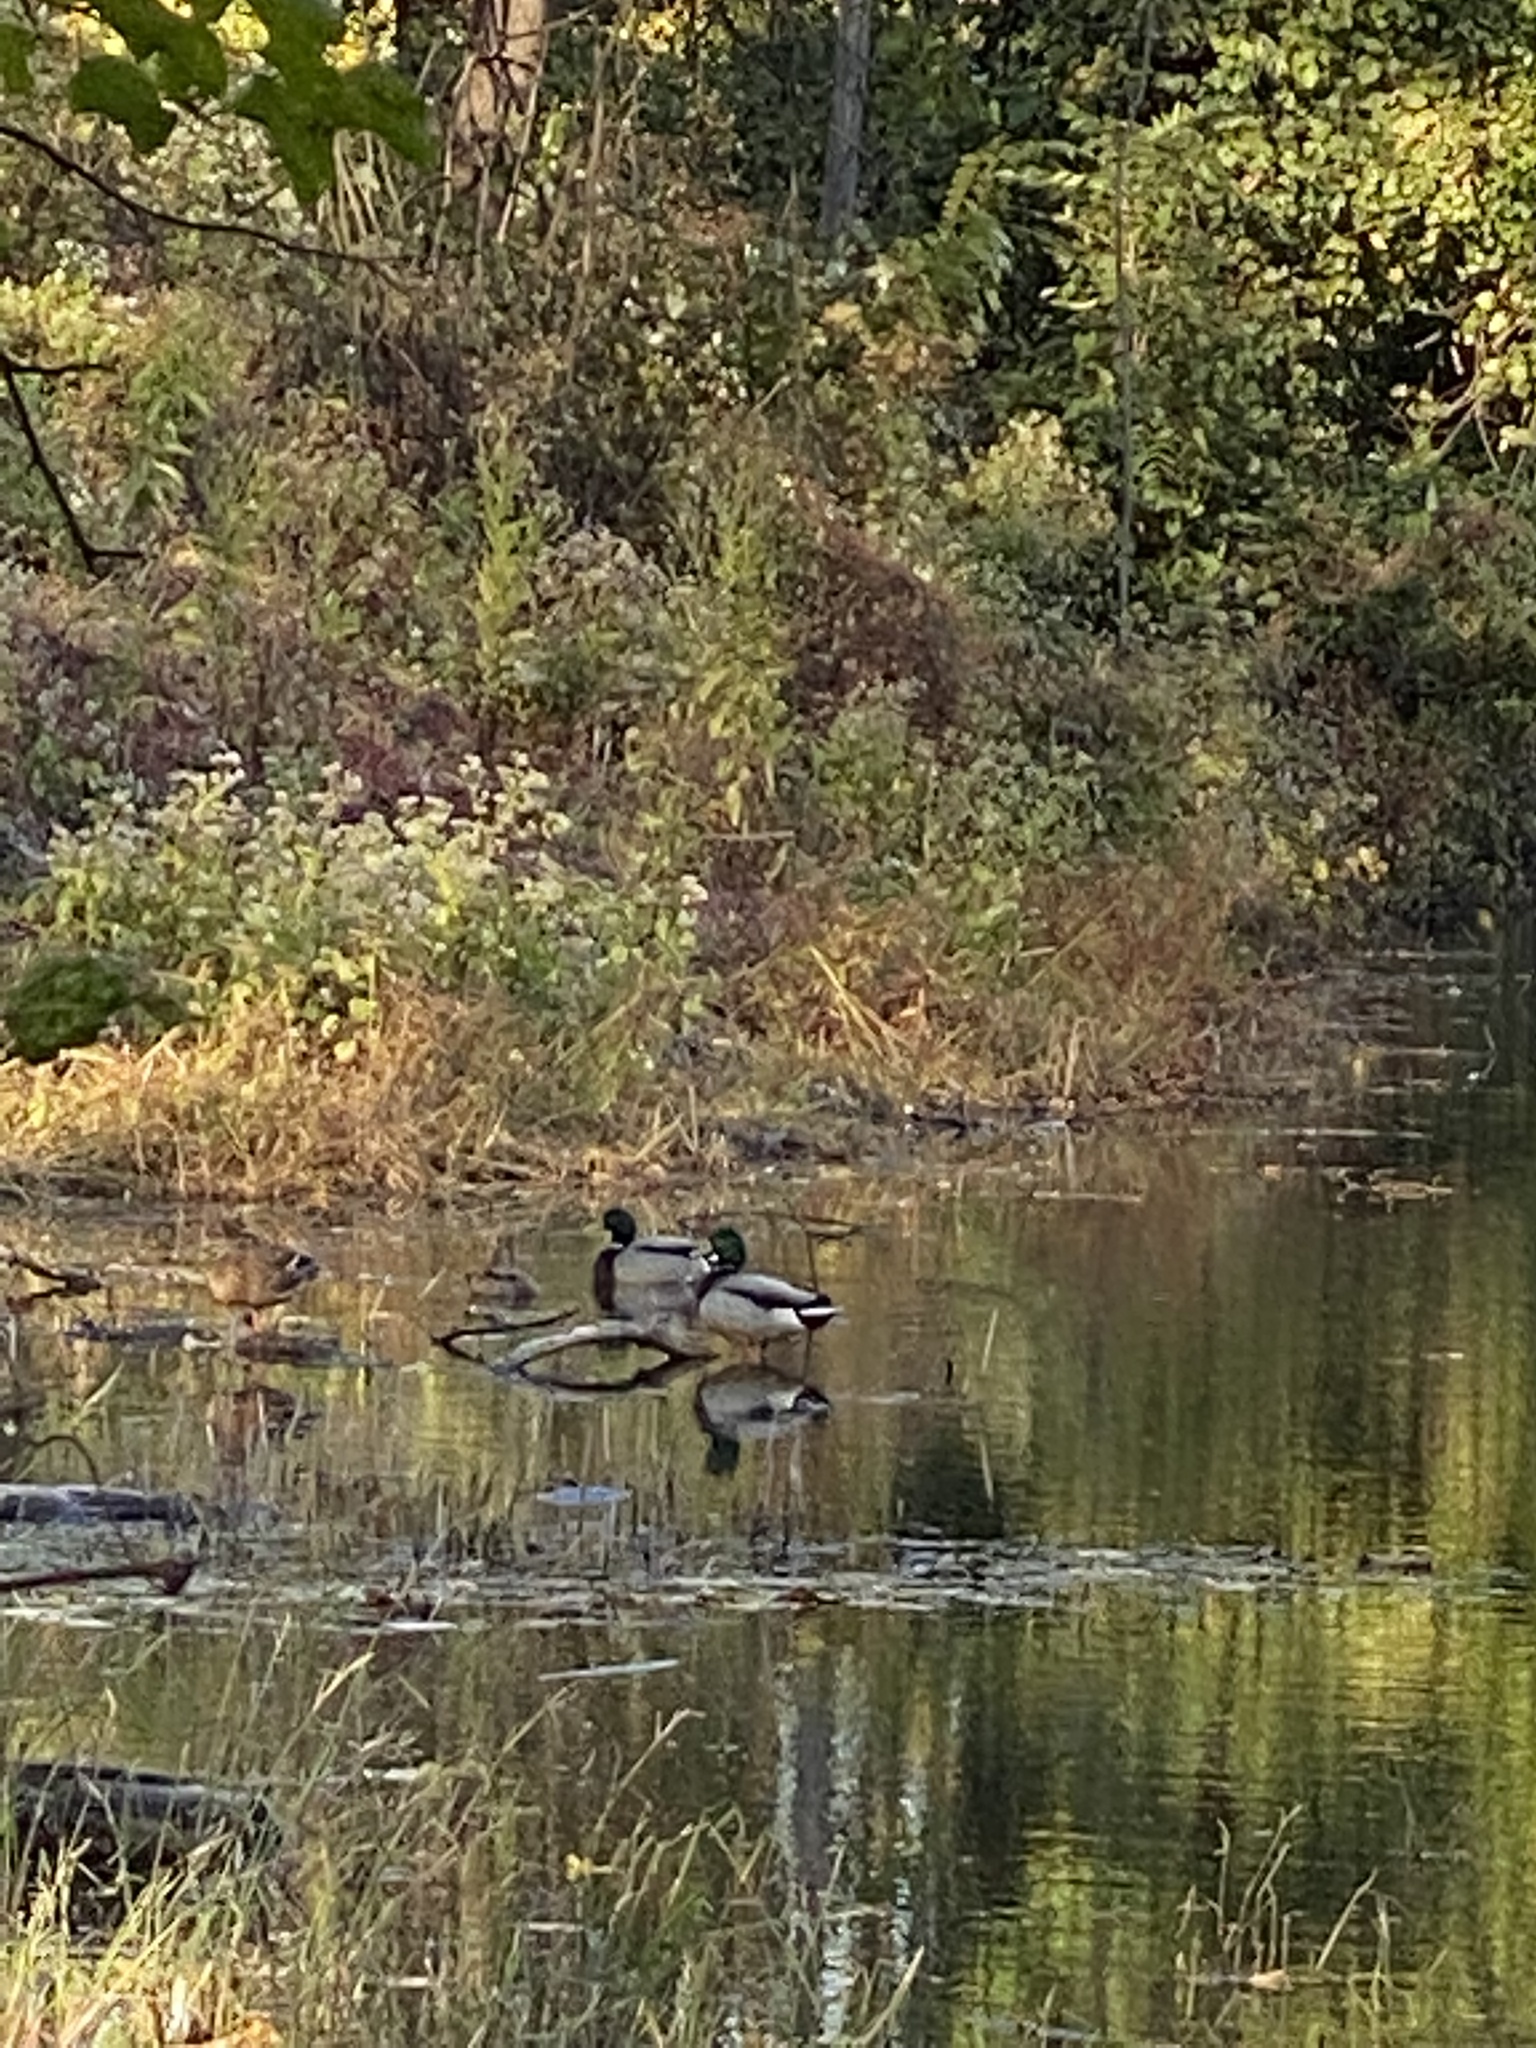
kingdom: Animalia
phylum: Chordata
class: Aves
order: Anseriformes
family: Anatidae
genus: Anas
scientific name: Anas platyrhynchos
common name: Mallard
